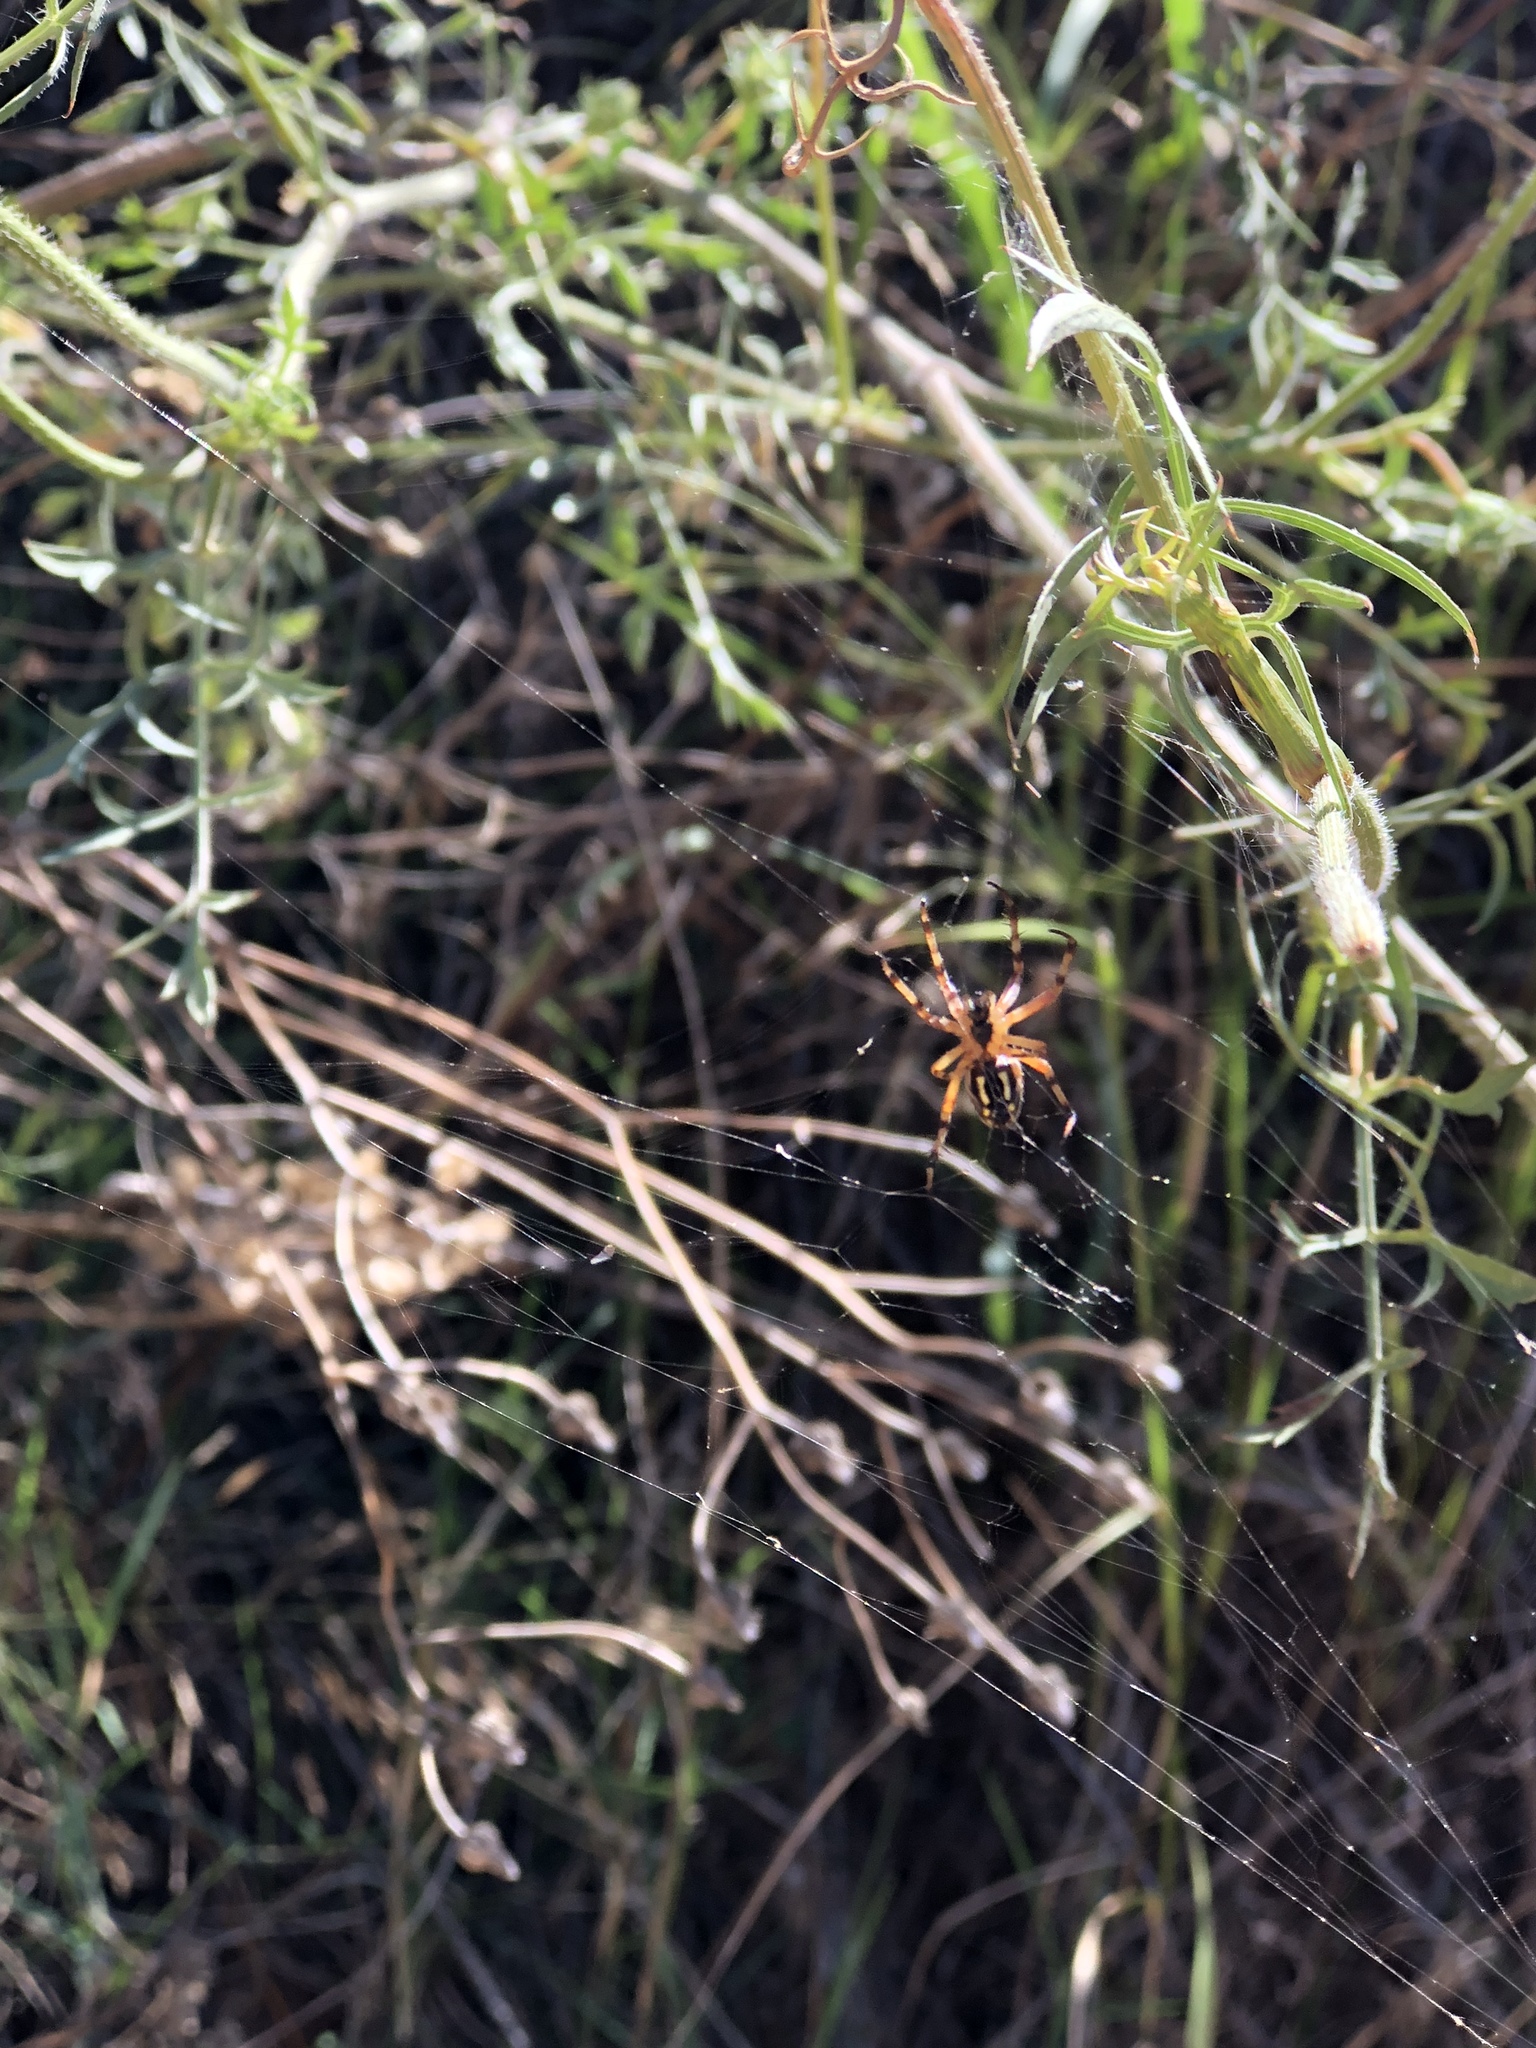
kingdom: Animalia
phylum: Arthropoda
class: Arachnida
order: Araneae
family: Araneidae
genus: Neoscona
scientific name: Neoscona adianta
